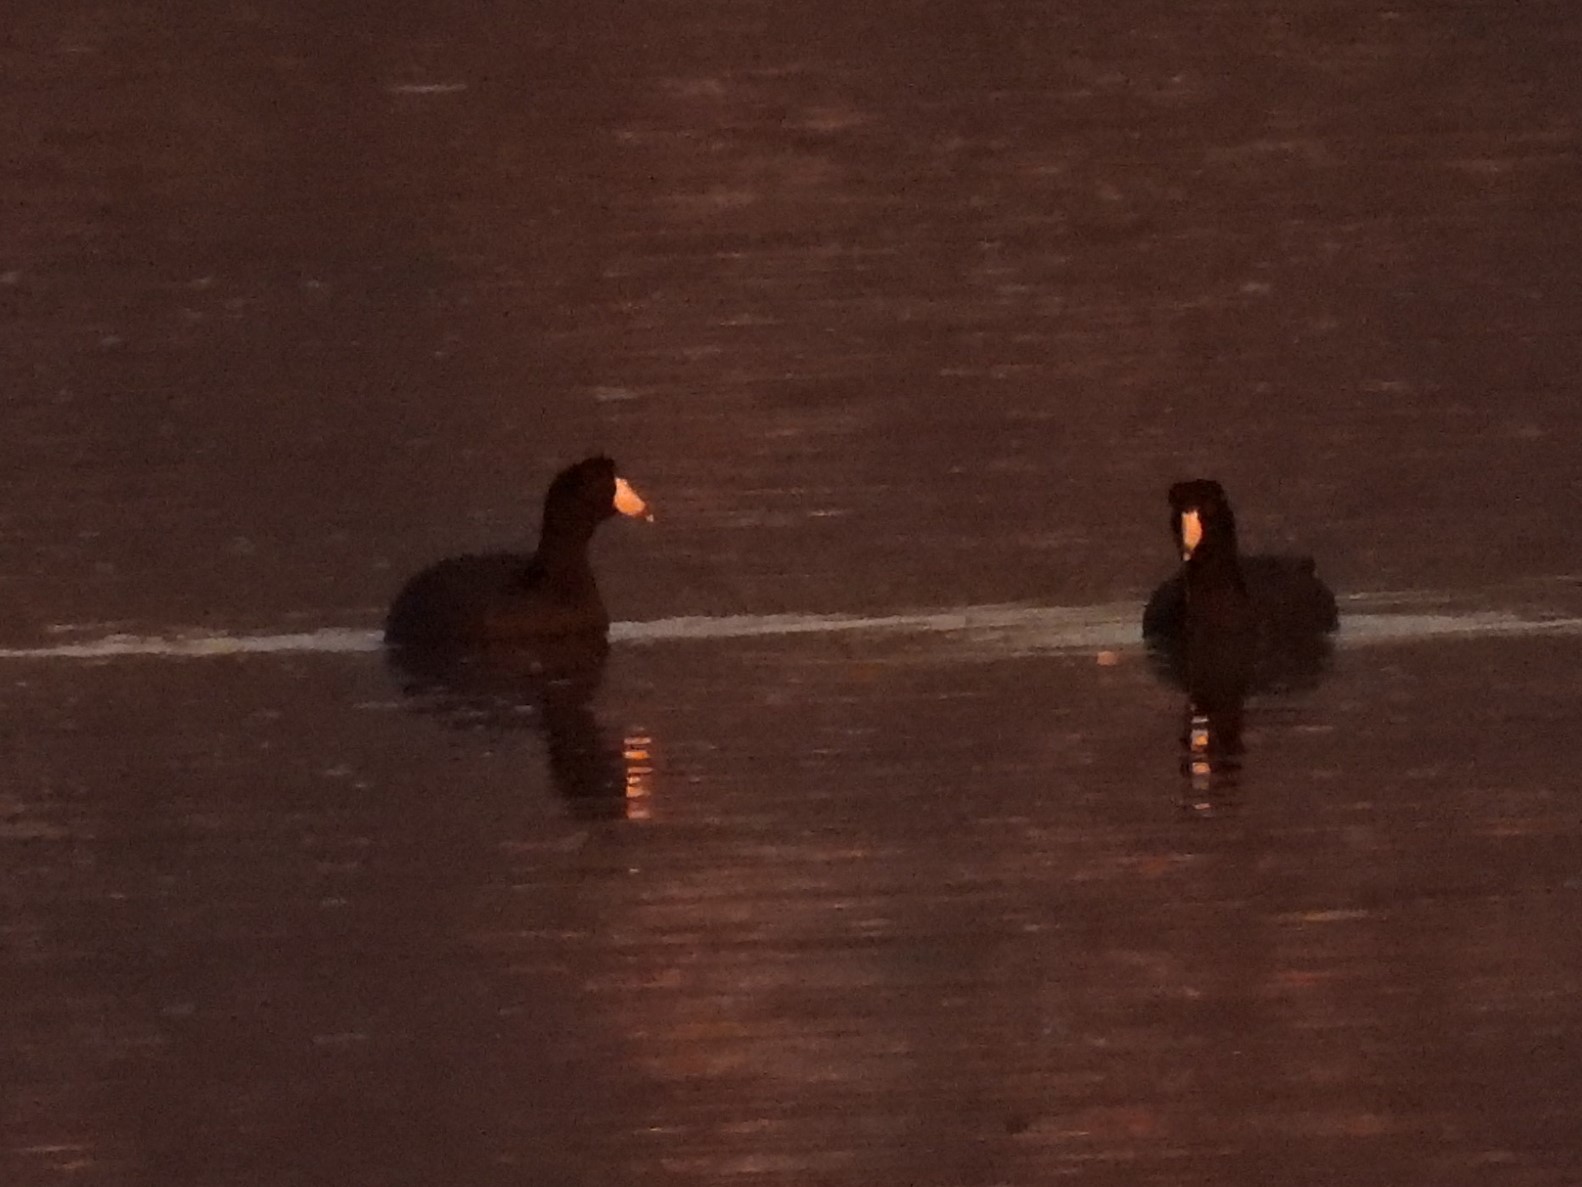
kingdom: Animalia
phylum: Chordata
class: Aves
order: Gruiformes
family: Rallidae
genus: Fulica
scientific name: Fulica americana
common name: American coot
